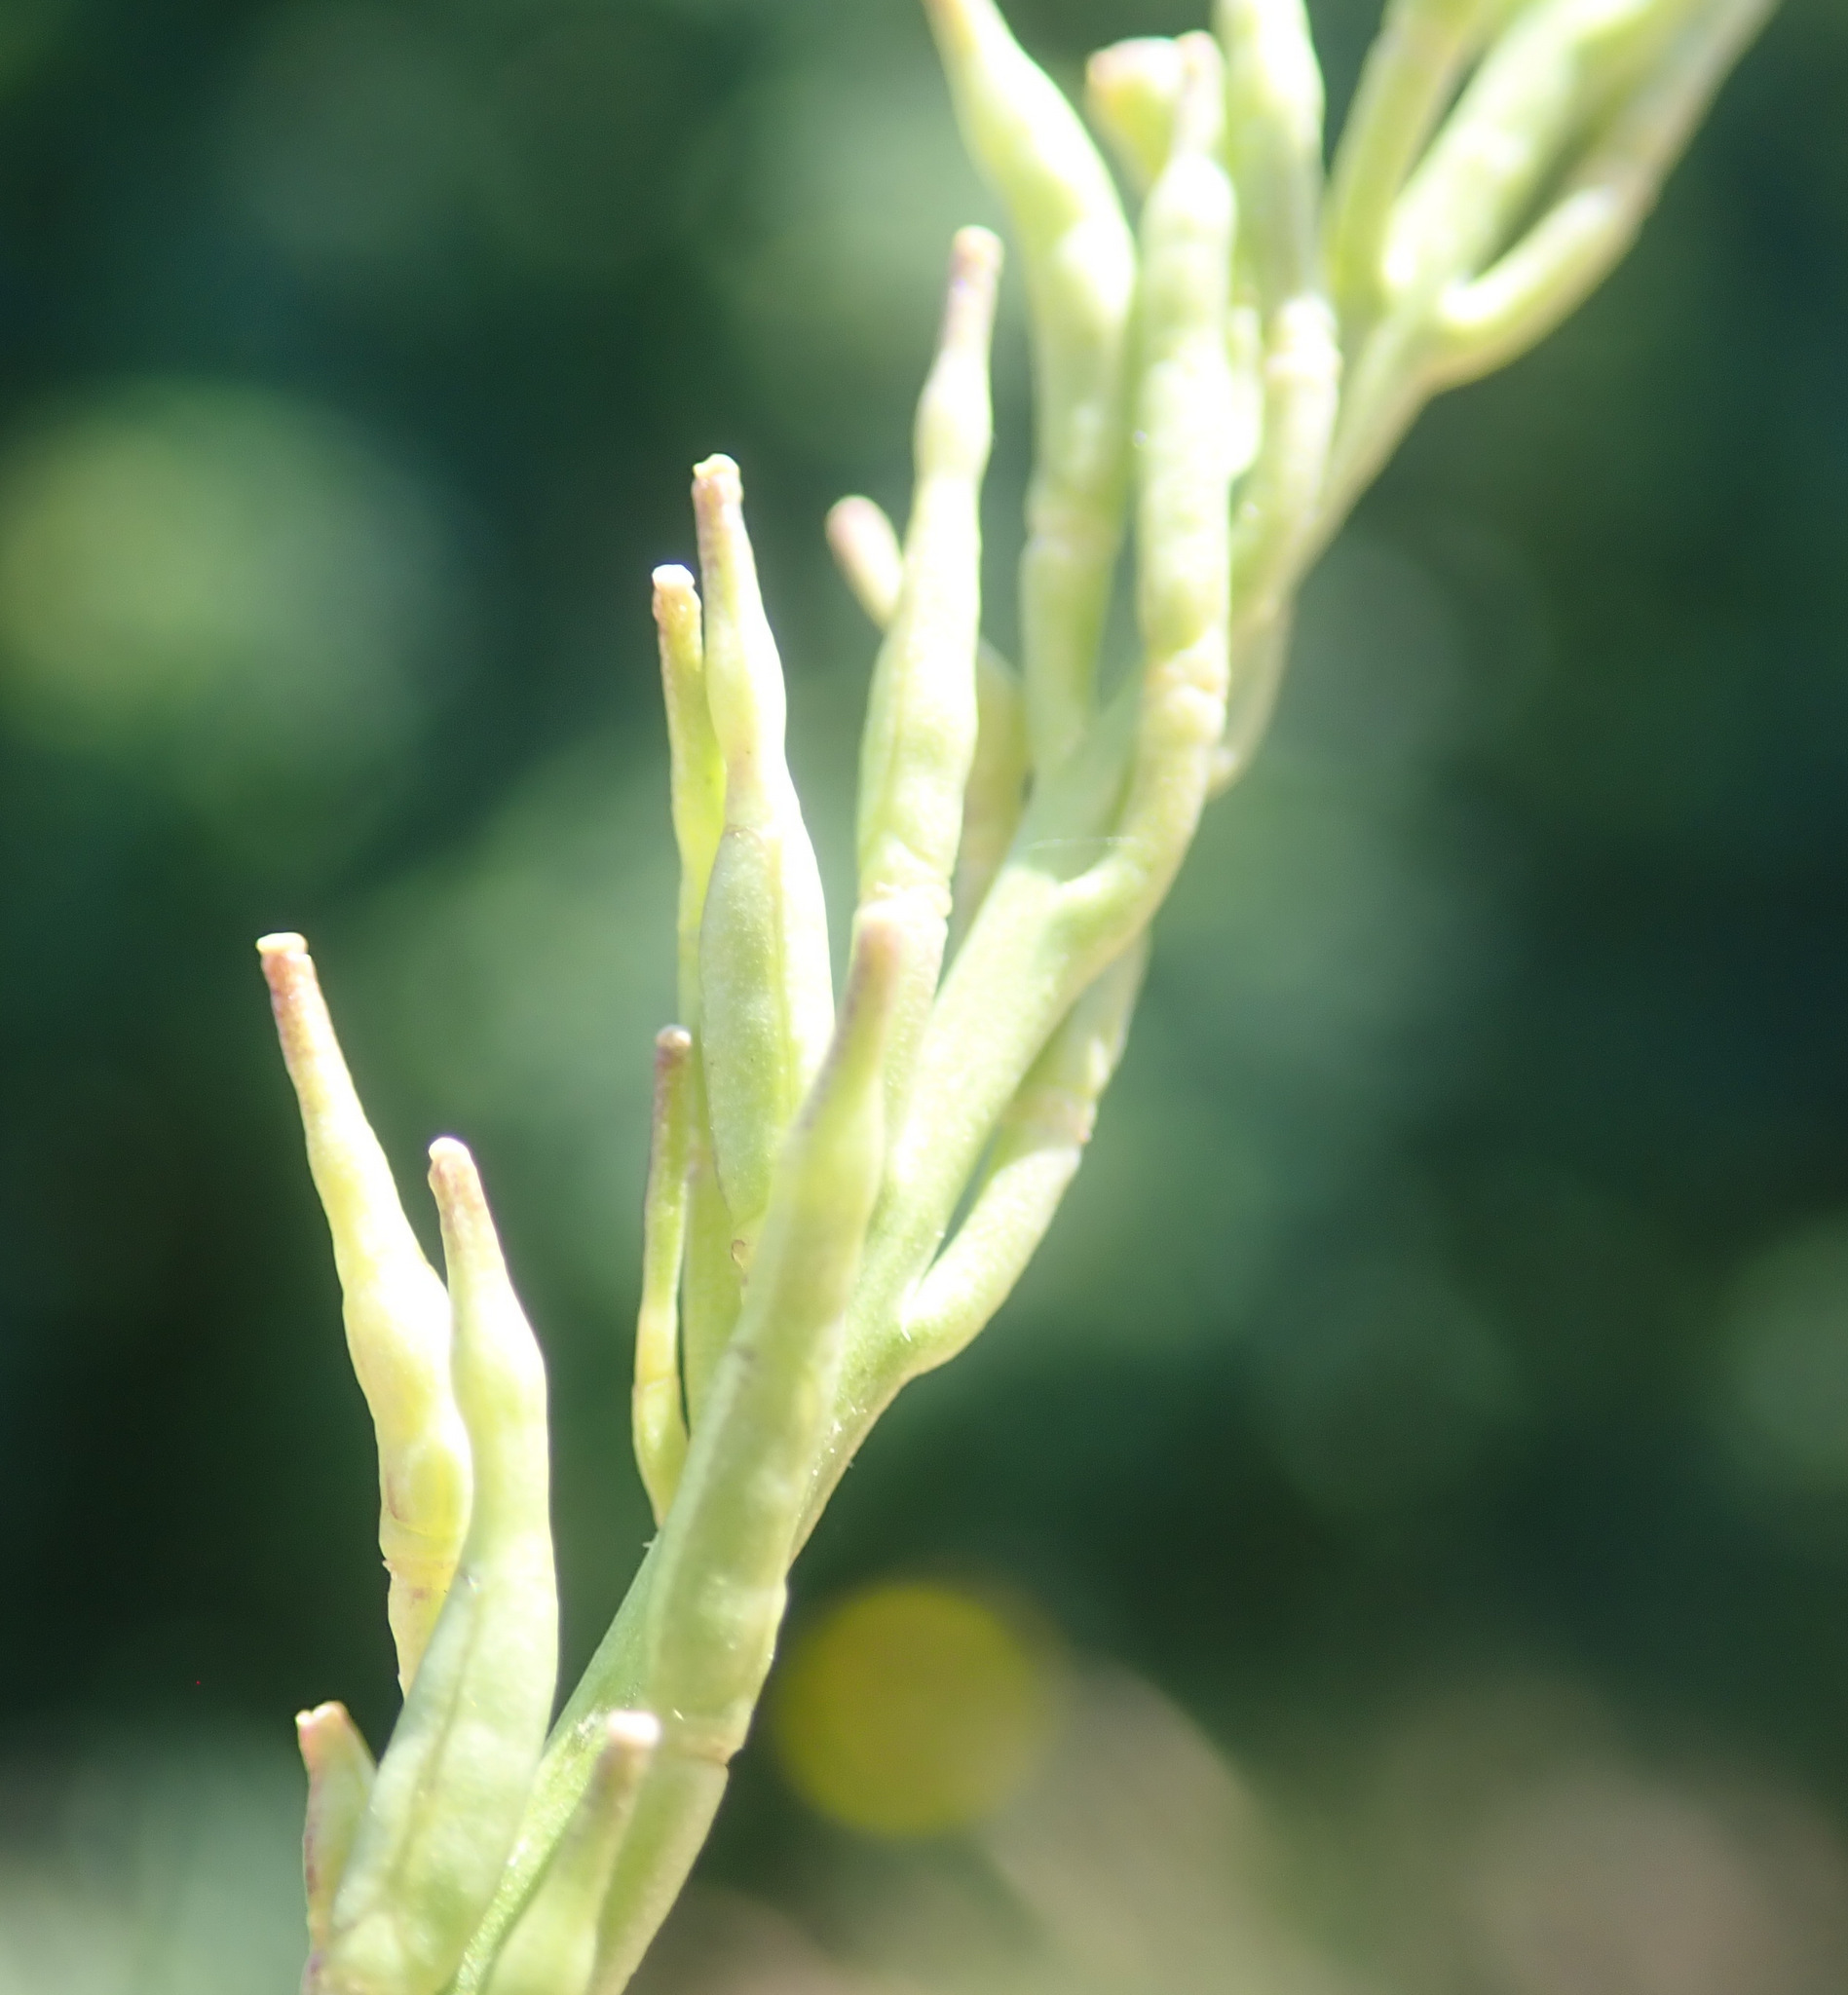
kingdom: Plantae
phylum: Tracheophyta
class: Magnoliopsida
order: Brassicales
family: Brassicaceae
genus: Hirschfeldia
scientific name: Hirschfeldia incana
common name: Hoary mustard
